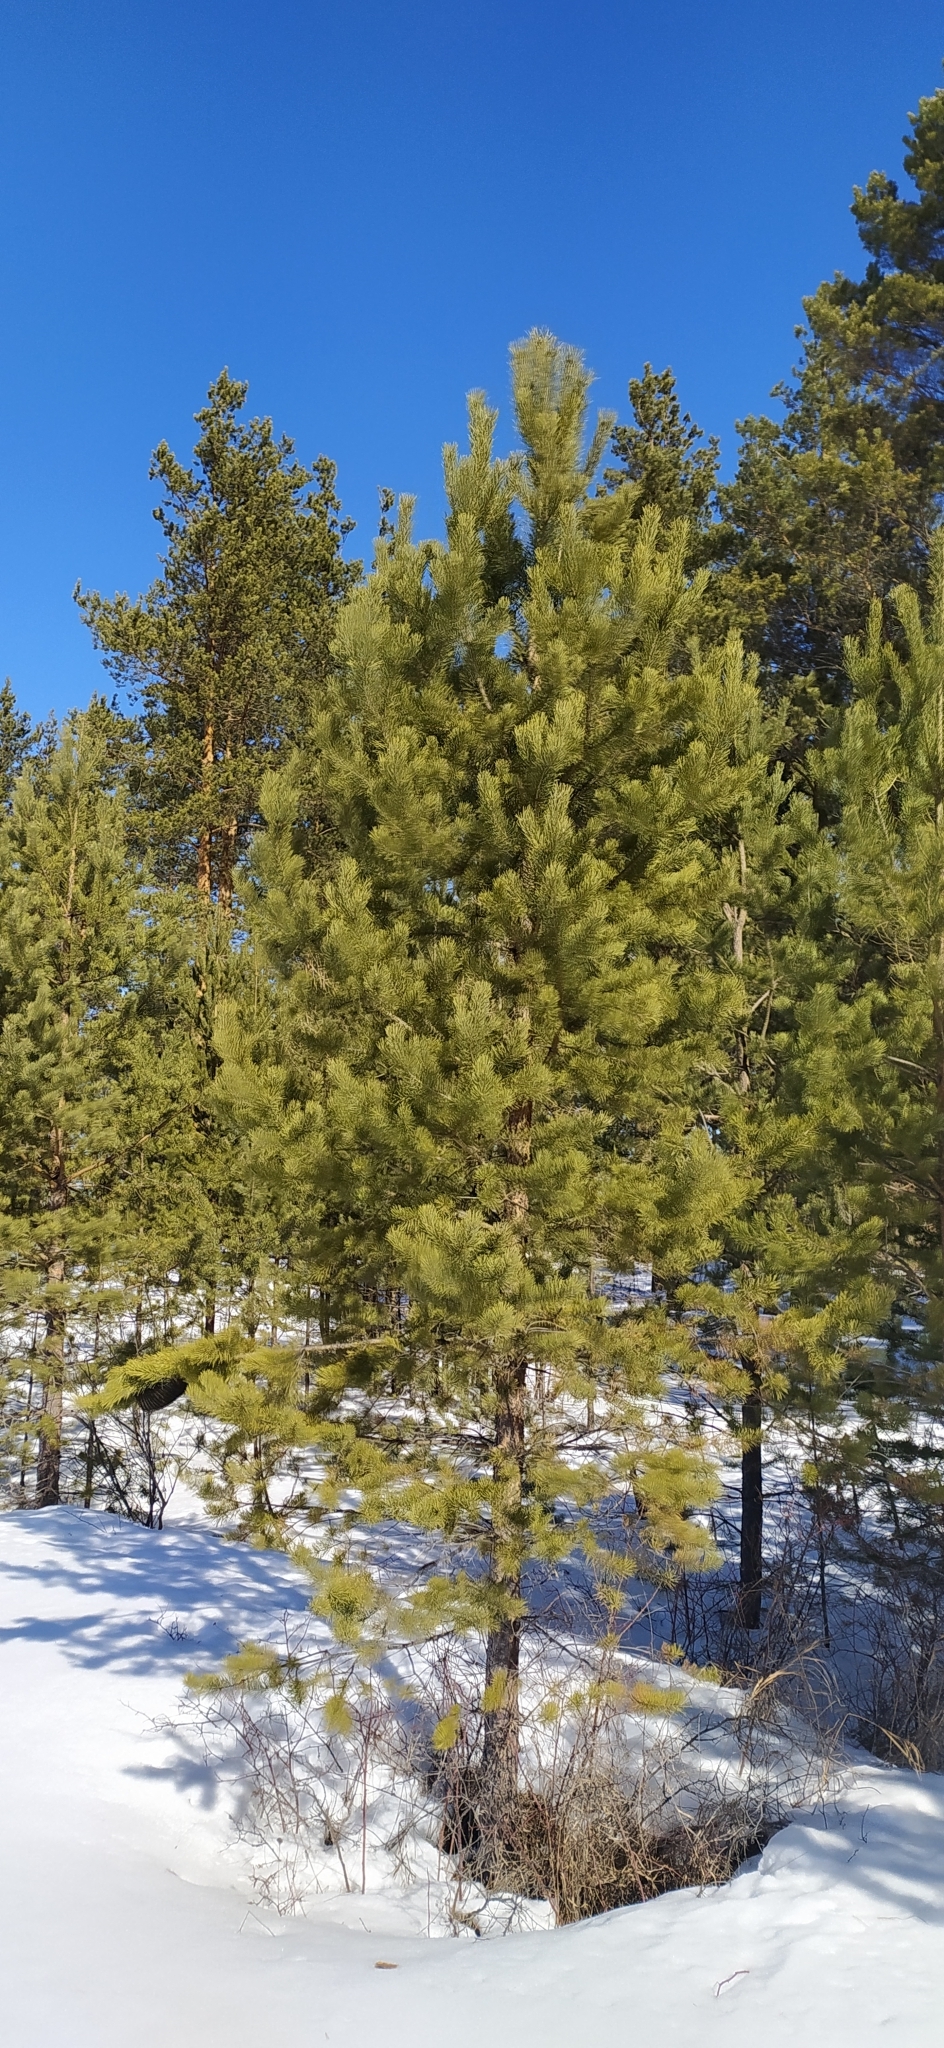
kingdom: Plantae
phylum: Tracheophyta
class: Pinopsida
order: Pinales
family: Pinaceae
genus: Pinus
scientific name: Pinus sylvestris
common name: Scots pine
